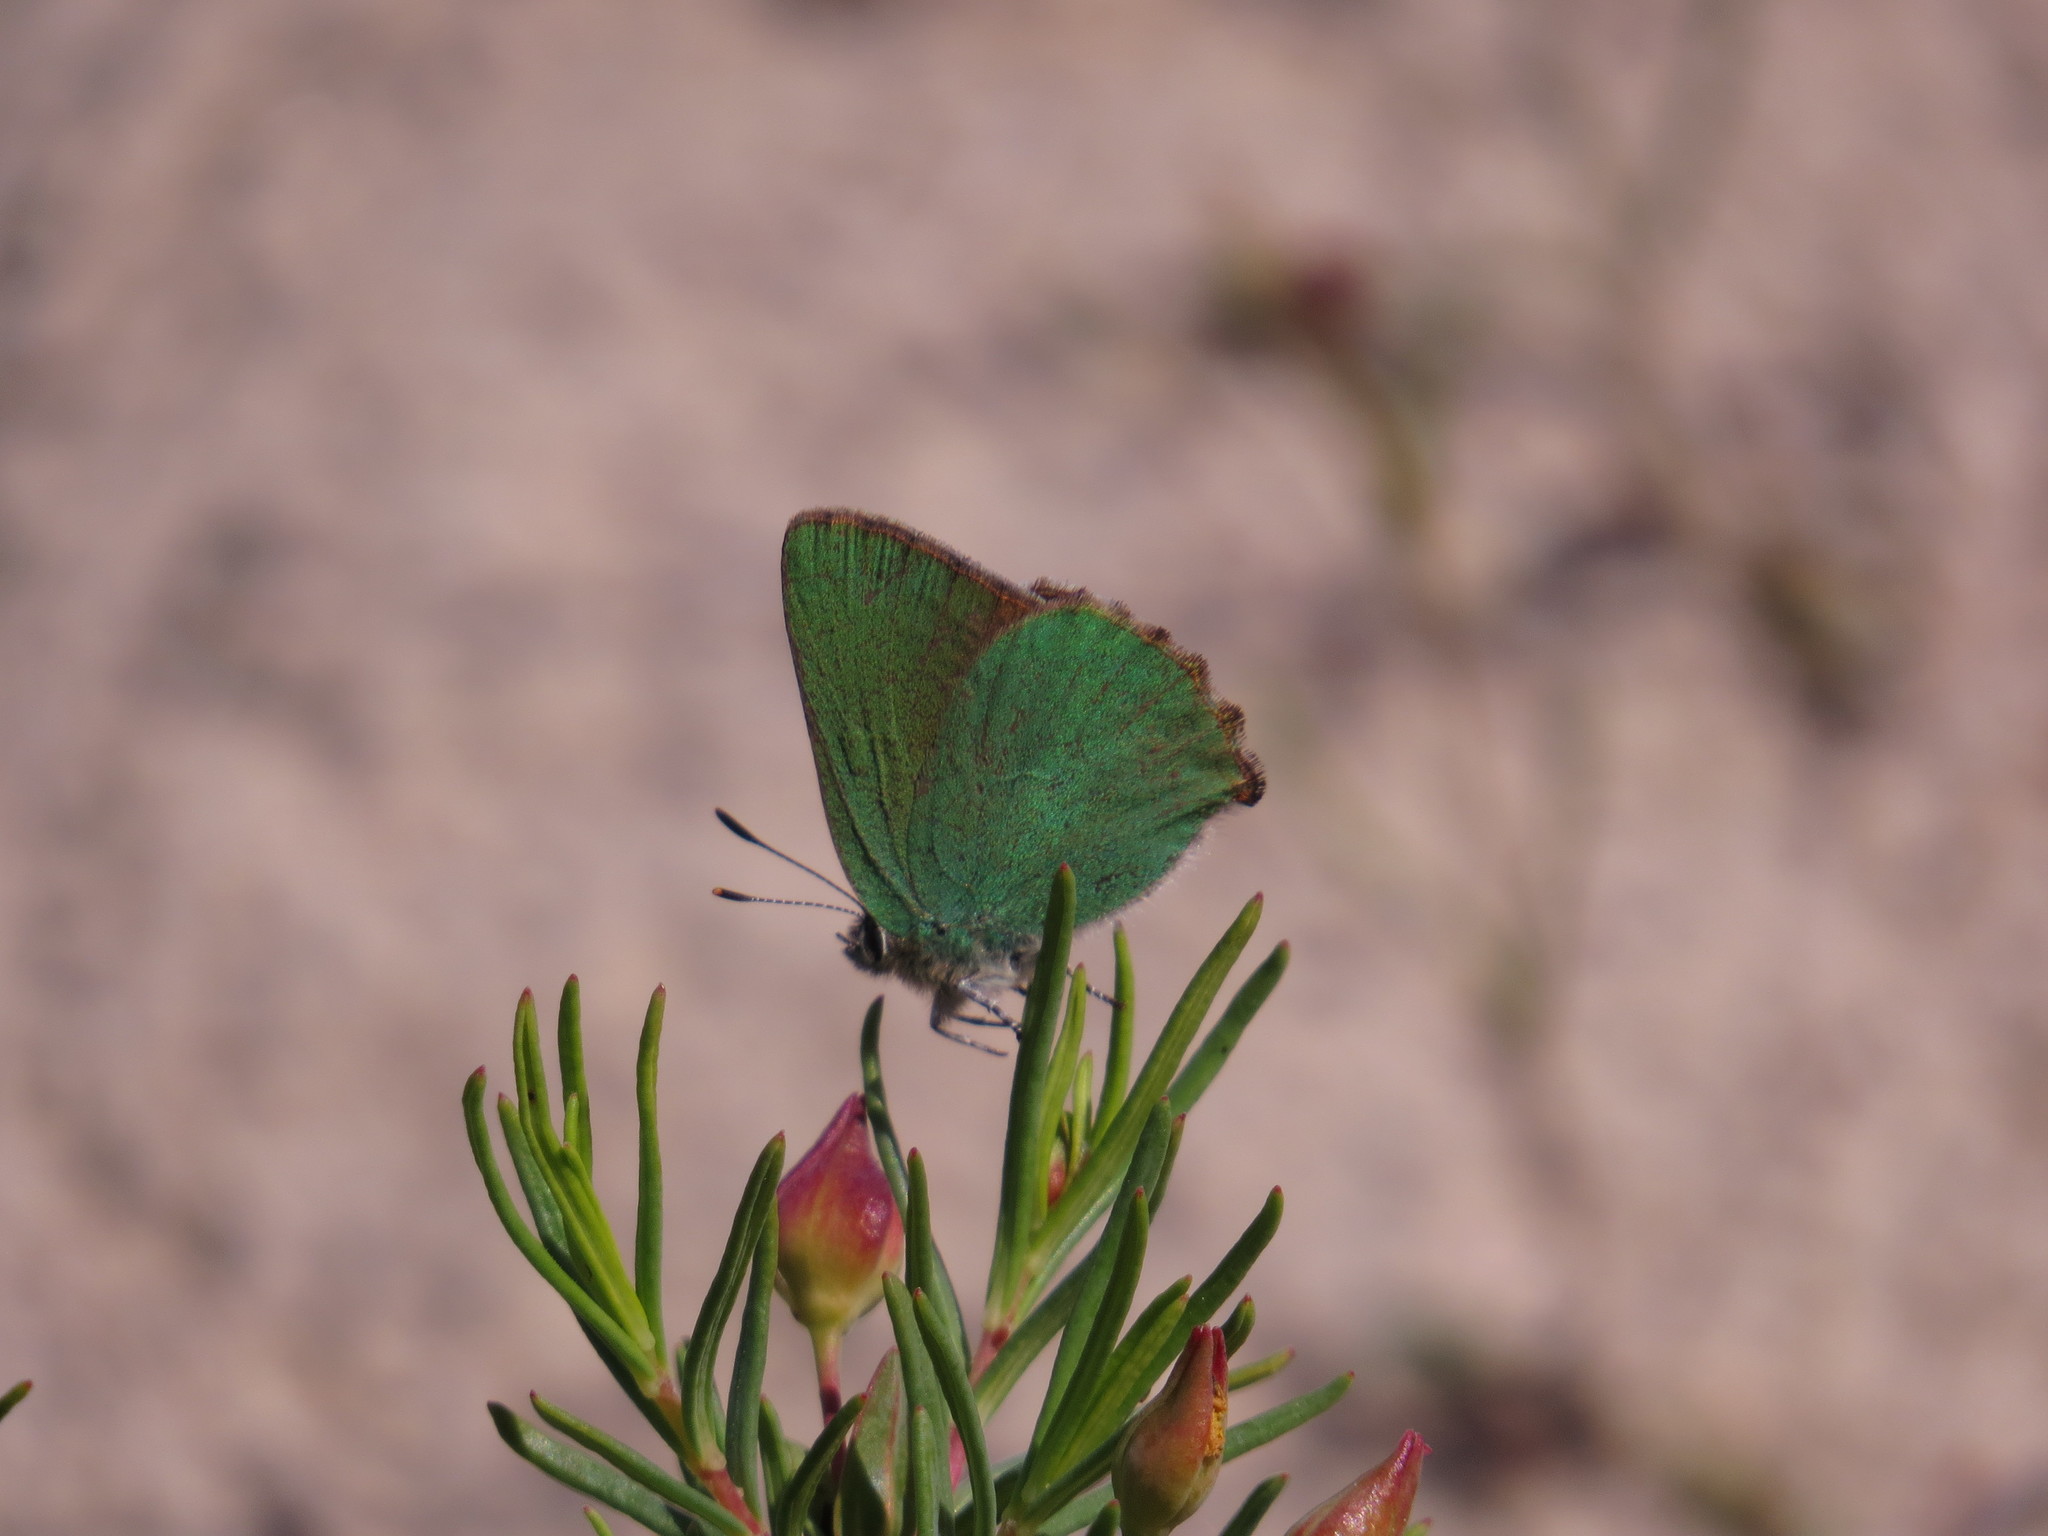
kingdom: Animalia
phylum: Arthropoda
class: Insecta
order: Lepidoptera
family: Lycaenidae
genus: Callophrys
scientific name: Callophrys rubi
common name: Green hairstreak
